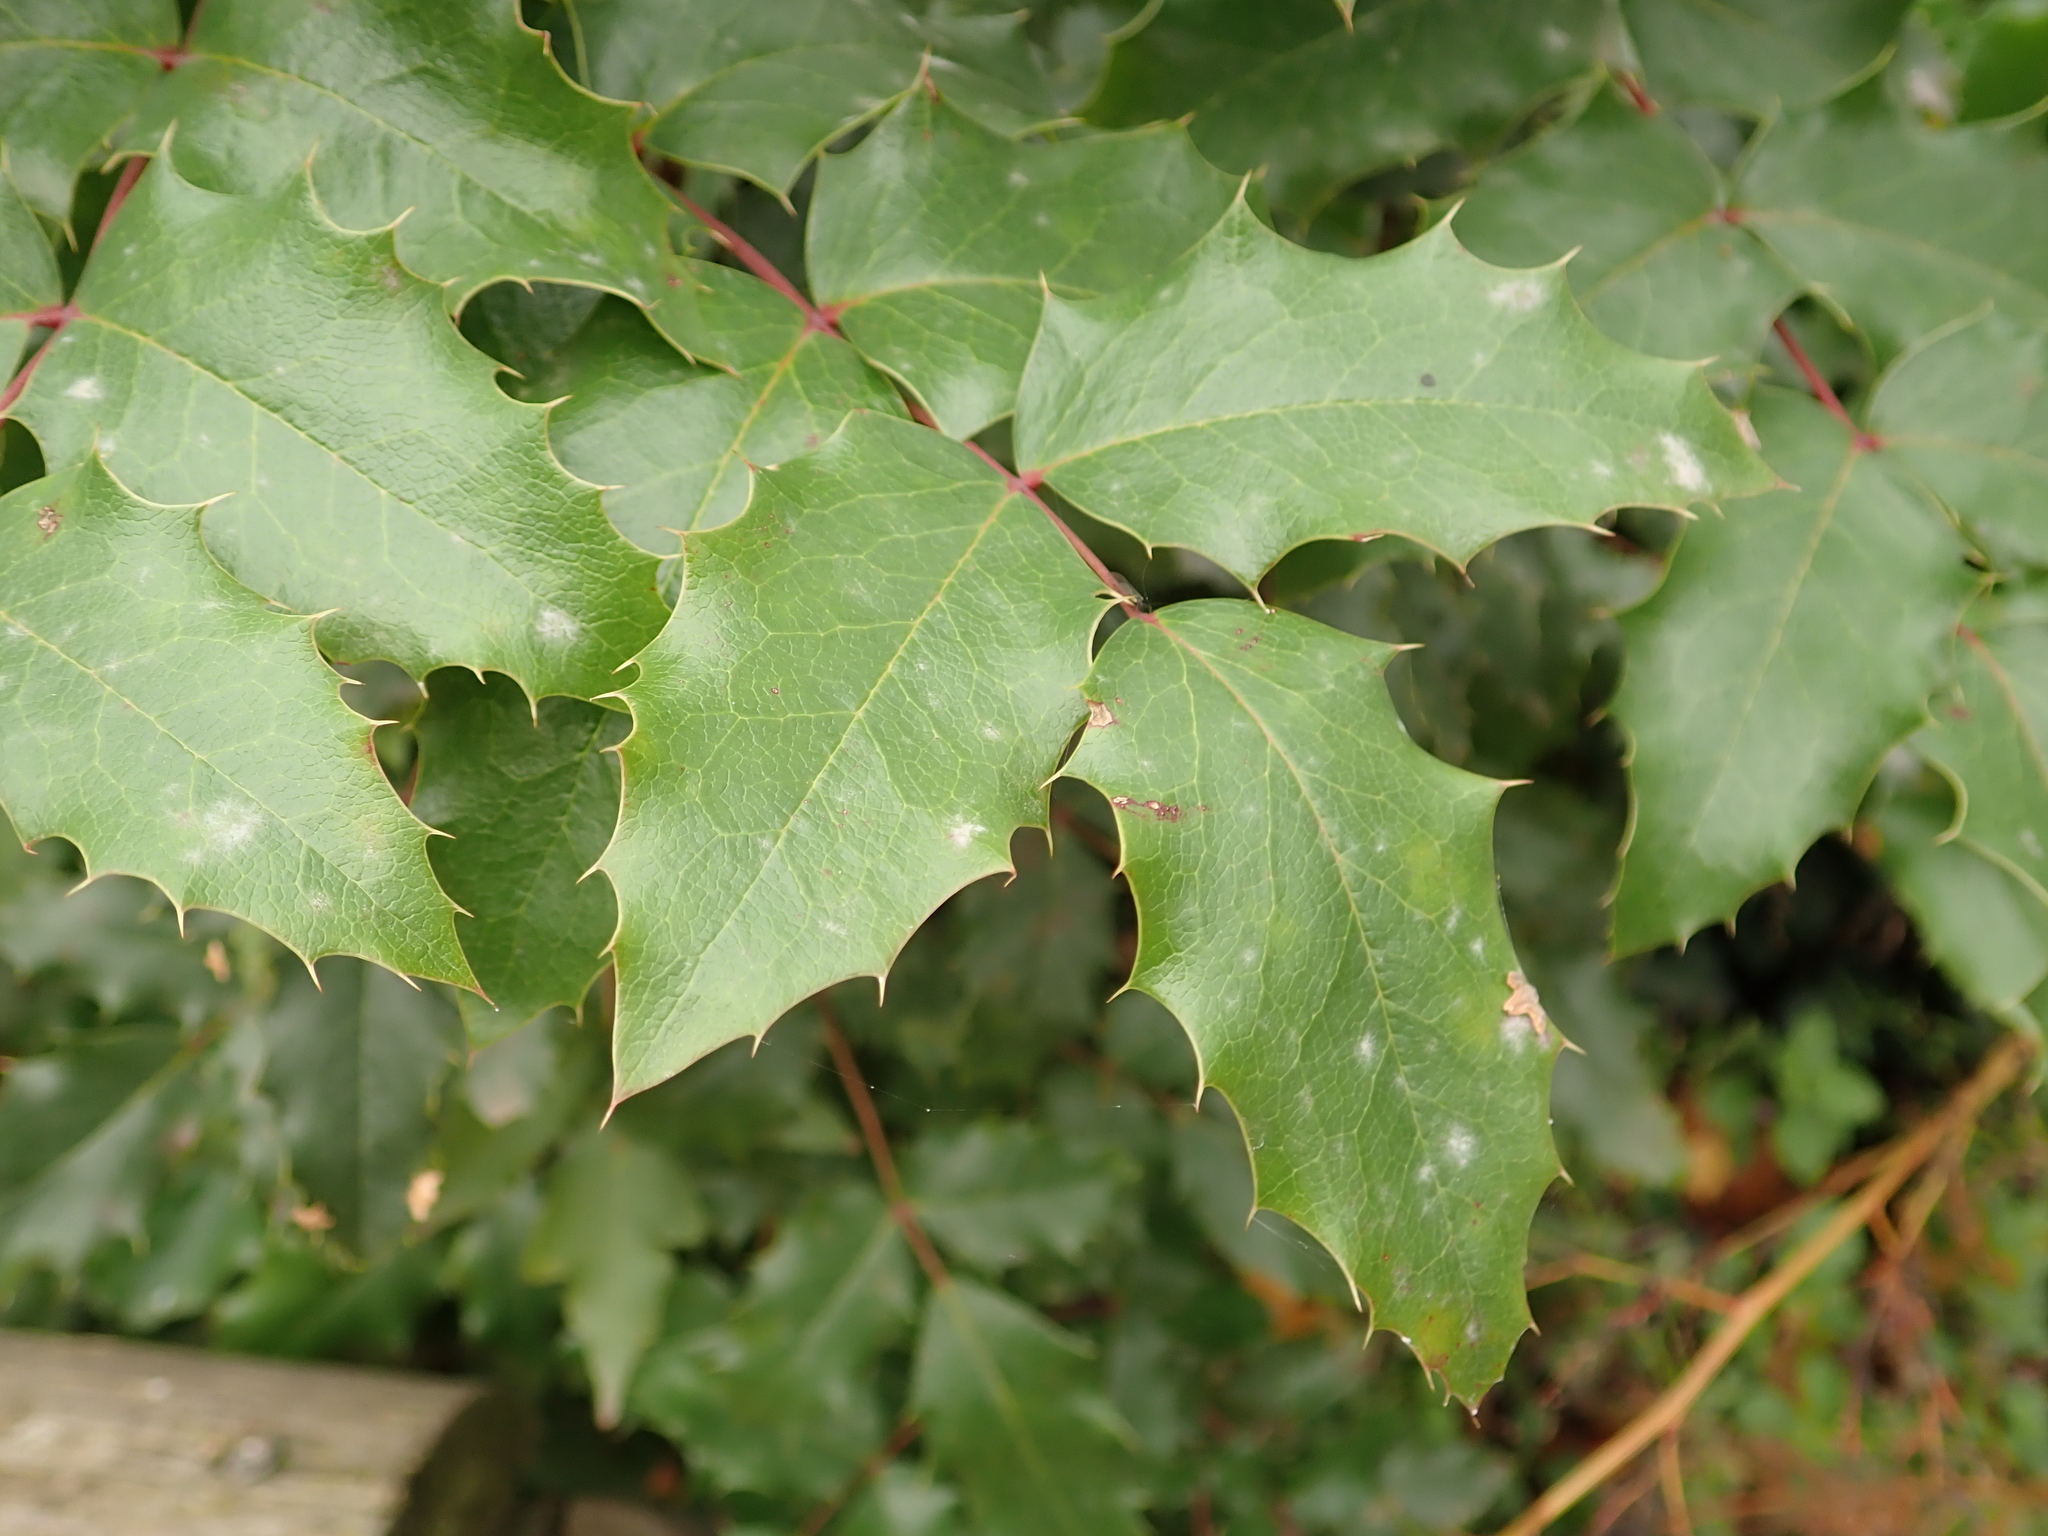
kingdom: Plantae
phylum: Tracheophyta
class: Magnoliopsida
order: Ranunculales
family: Berberidaceae
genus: Mahonia
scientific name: Mahonia aquifolium
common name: Oregon-grape
